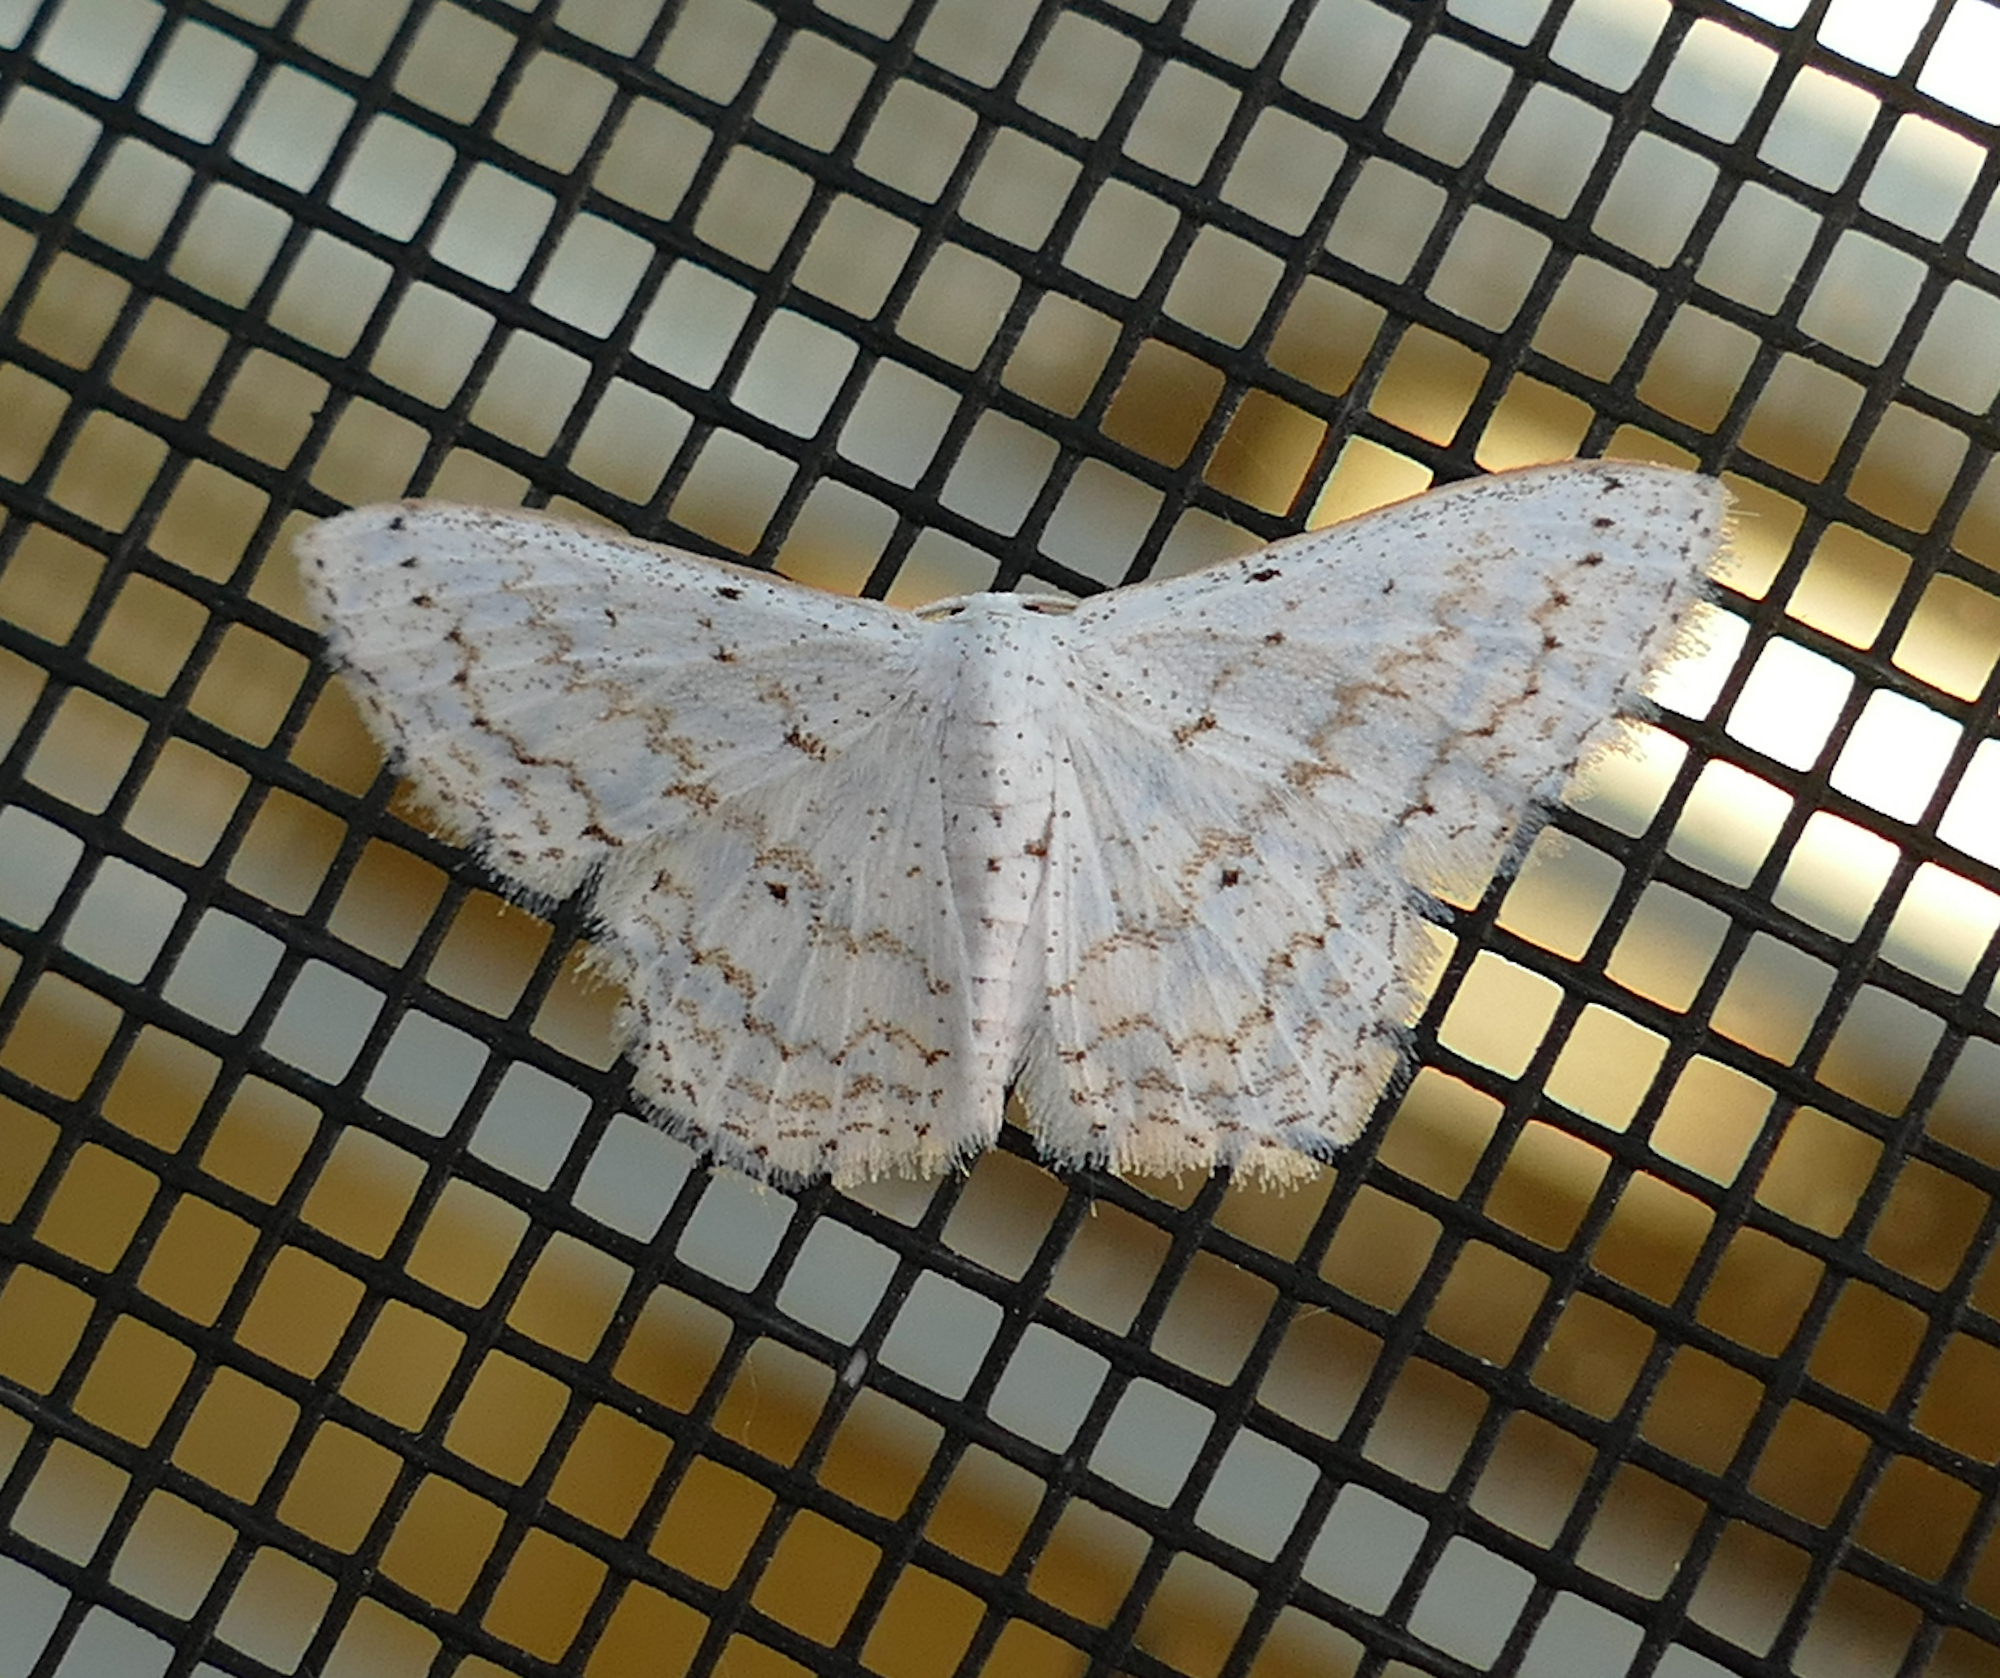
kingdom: Animalia
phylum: Arthropoda
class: Insecta
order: Lepidoptera
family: Geometridae
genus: Idaea
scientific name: Idaea tacturata
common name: Dot-lined wave
